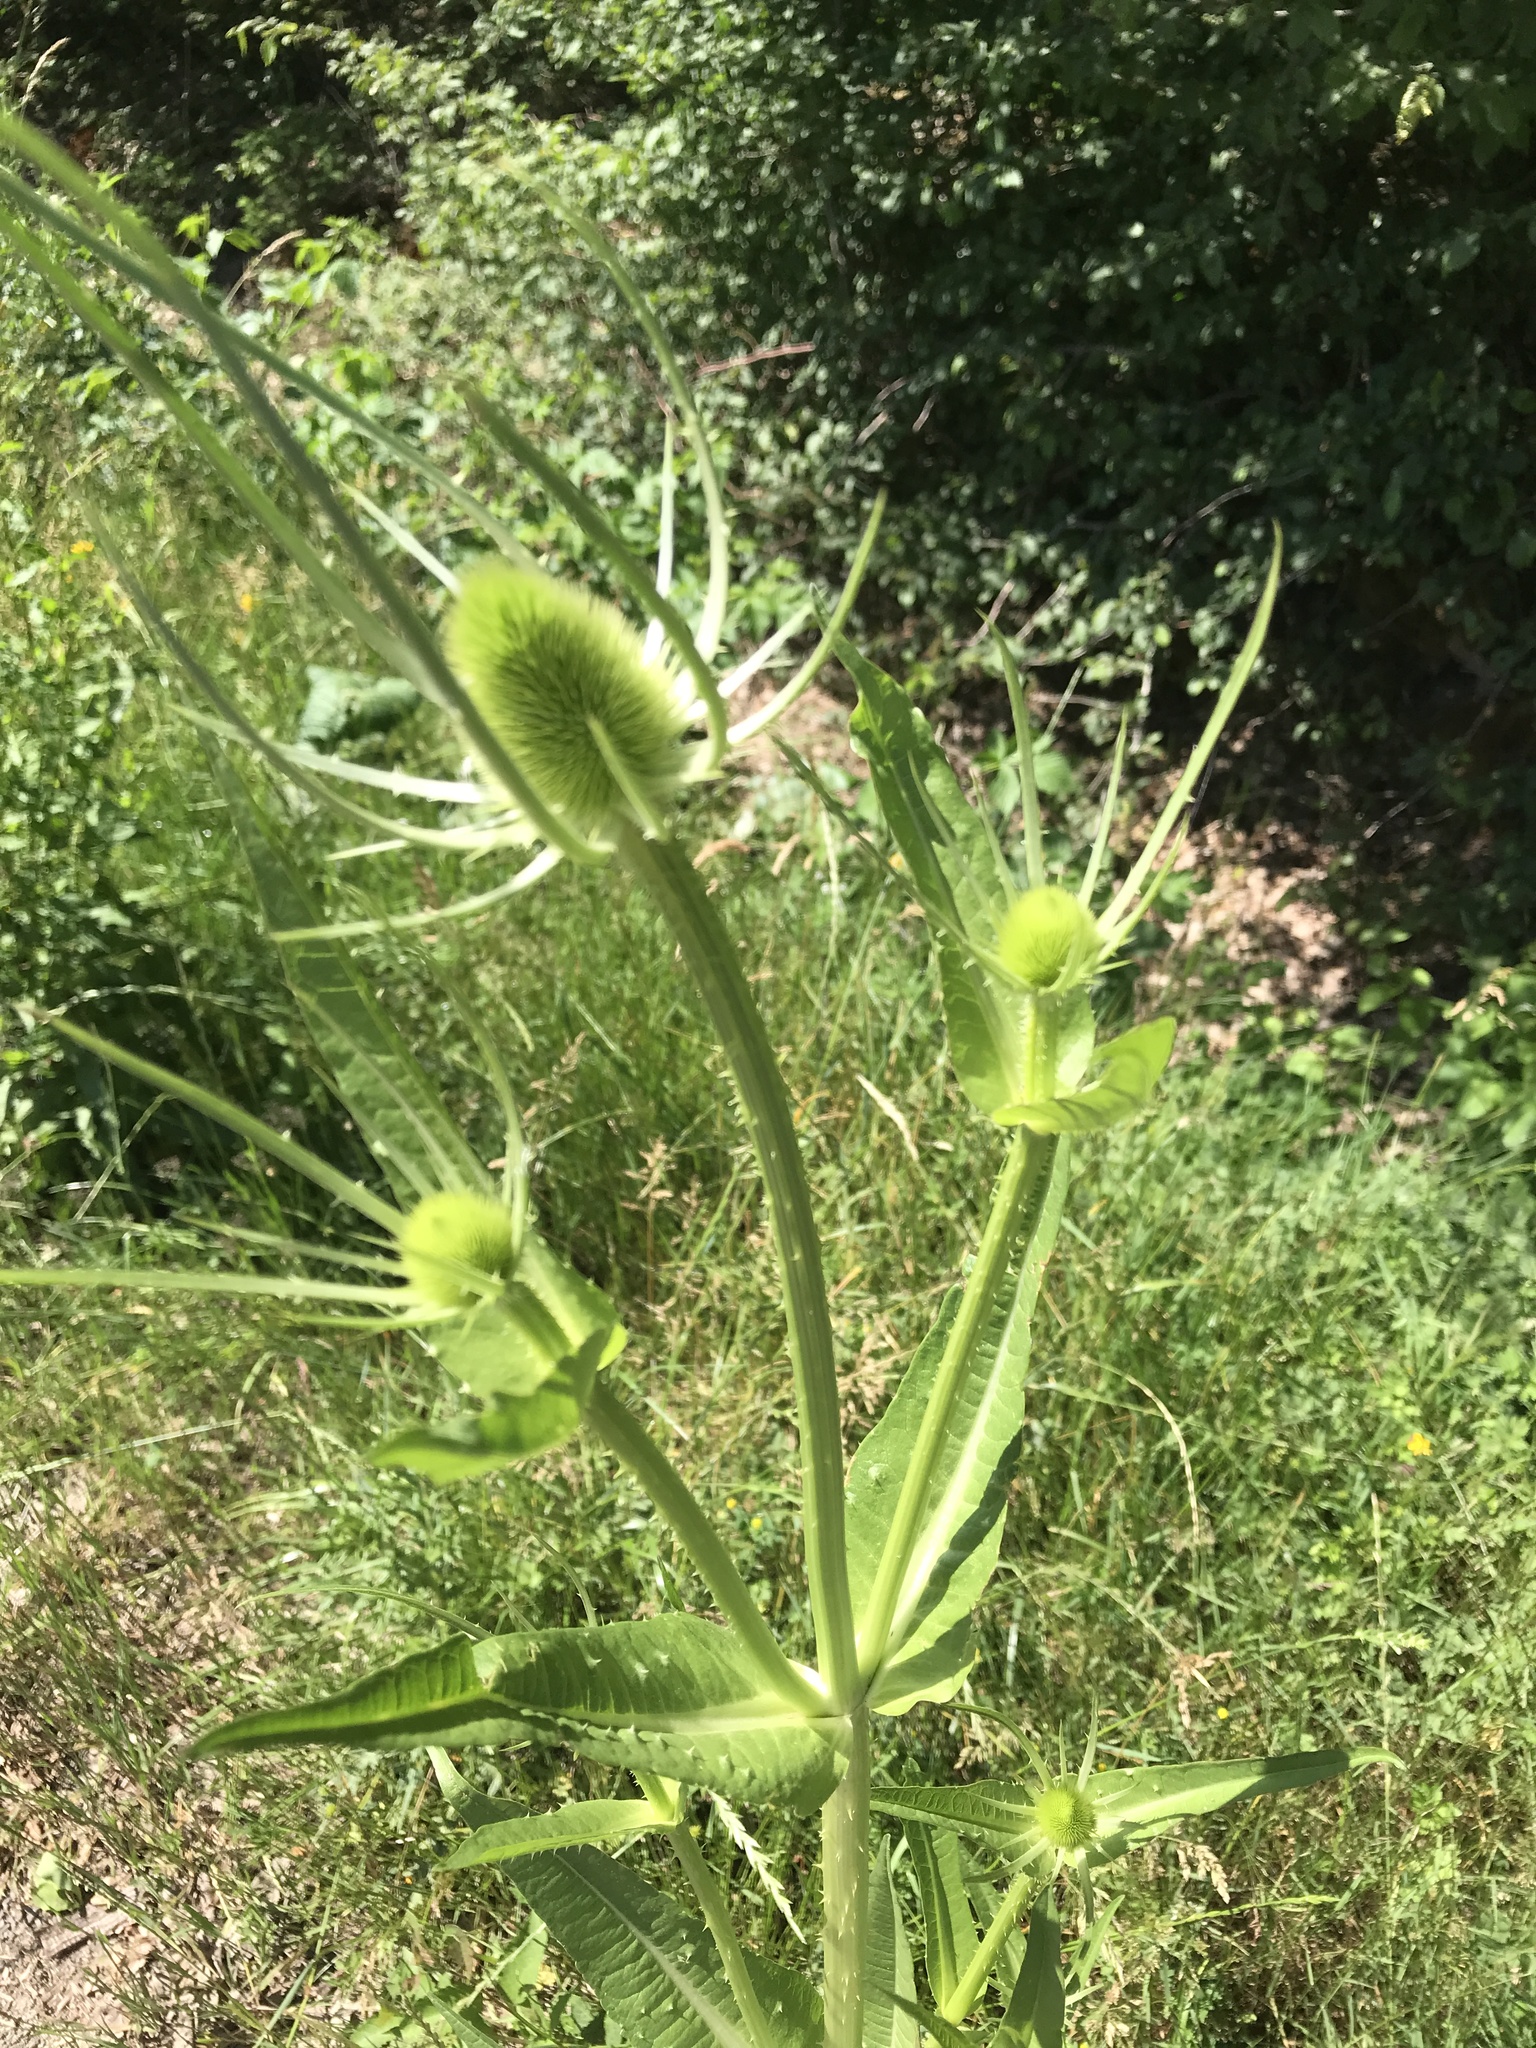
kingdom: Plantae
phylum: Tracheophyta
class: Magnoliopsida
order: Dipsacales
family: Caprifoliaceae
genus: Dipsacus
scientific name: Dipsacus fullonum
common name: Teasel
